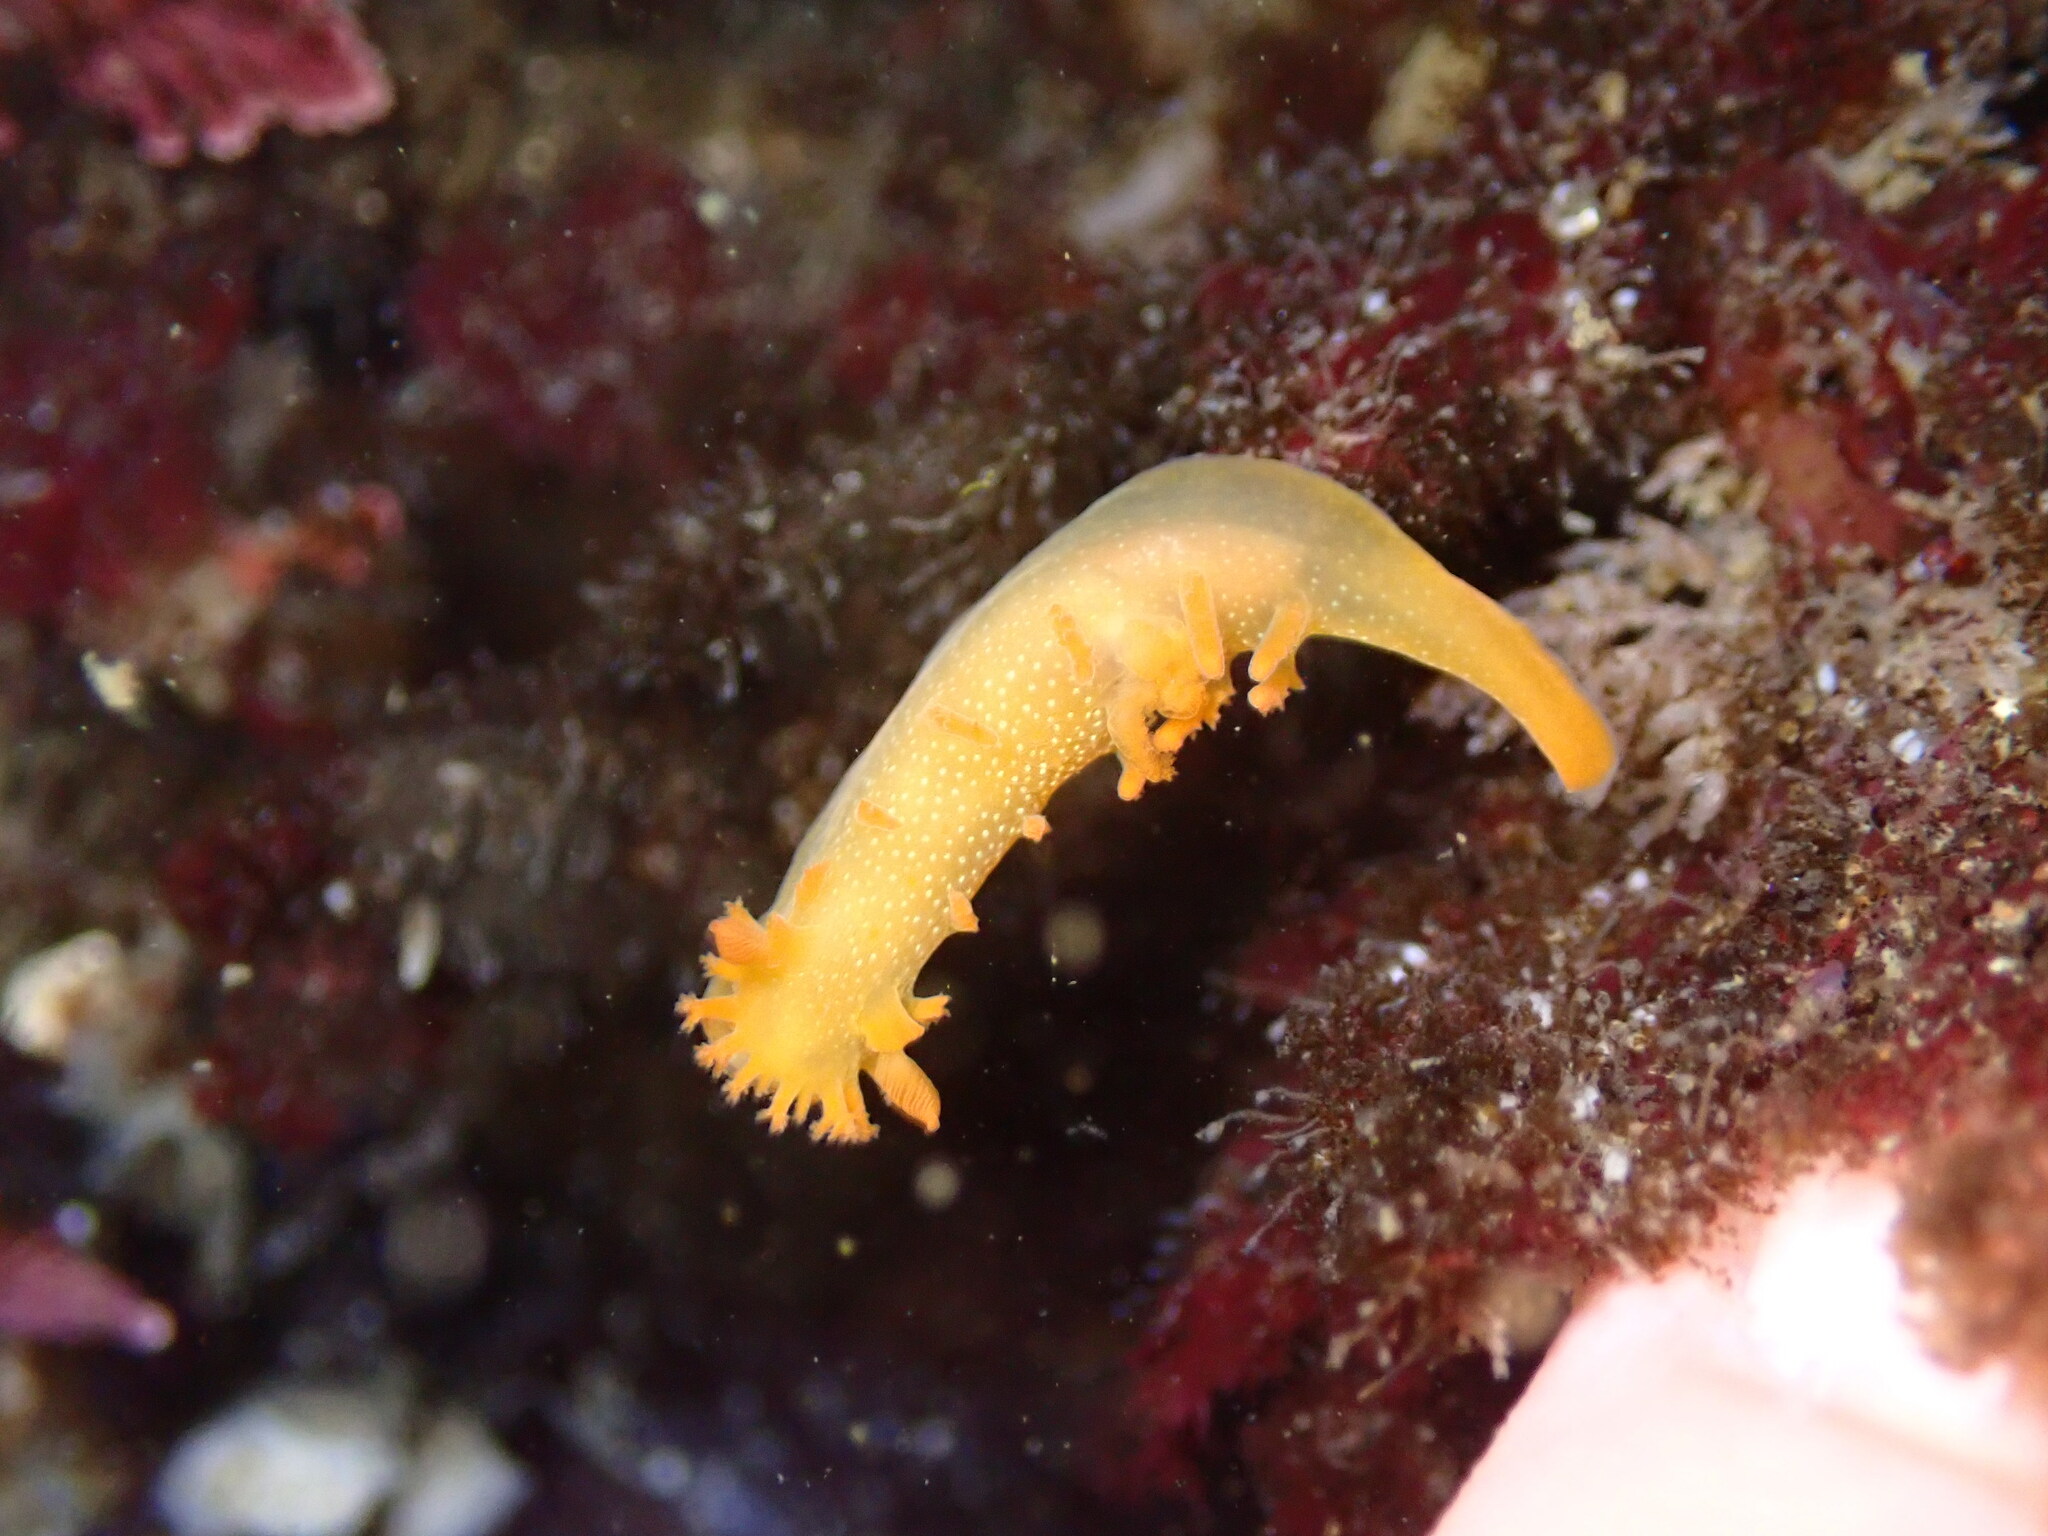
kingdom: Animalia
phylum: Mollusca
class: Gastropoda
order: Nudibranchia
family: Polyceridae
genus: Triopha
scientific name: Triopha maculata
